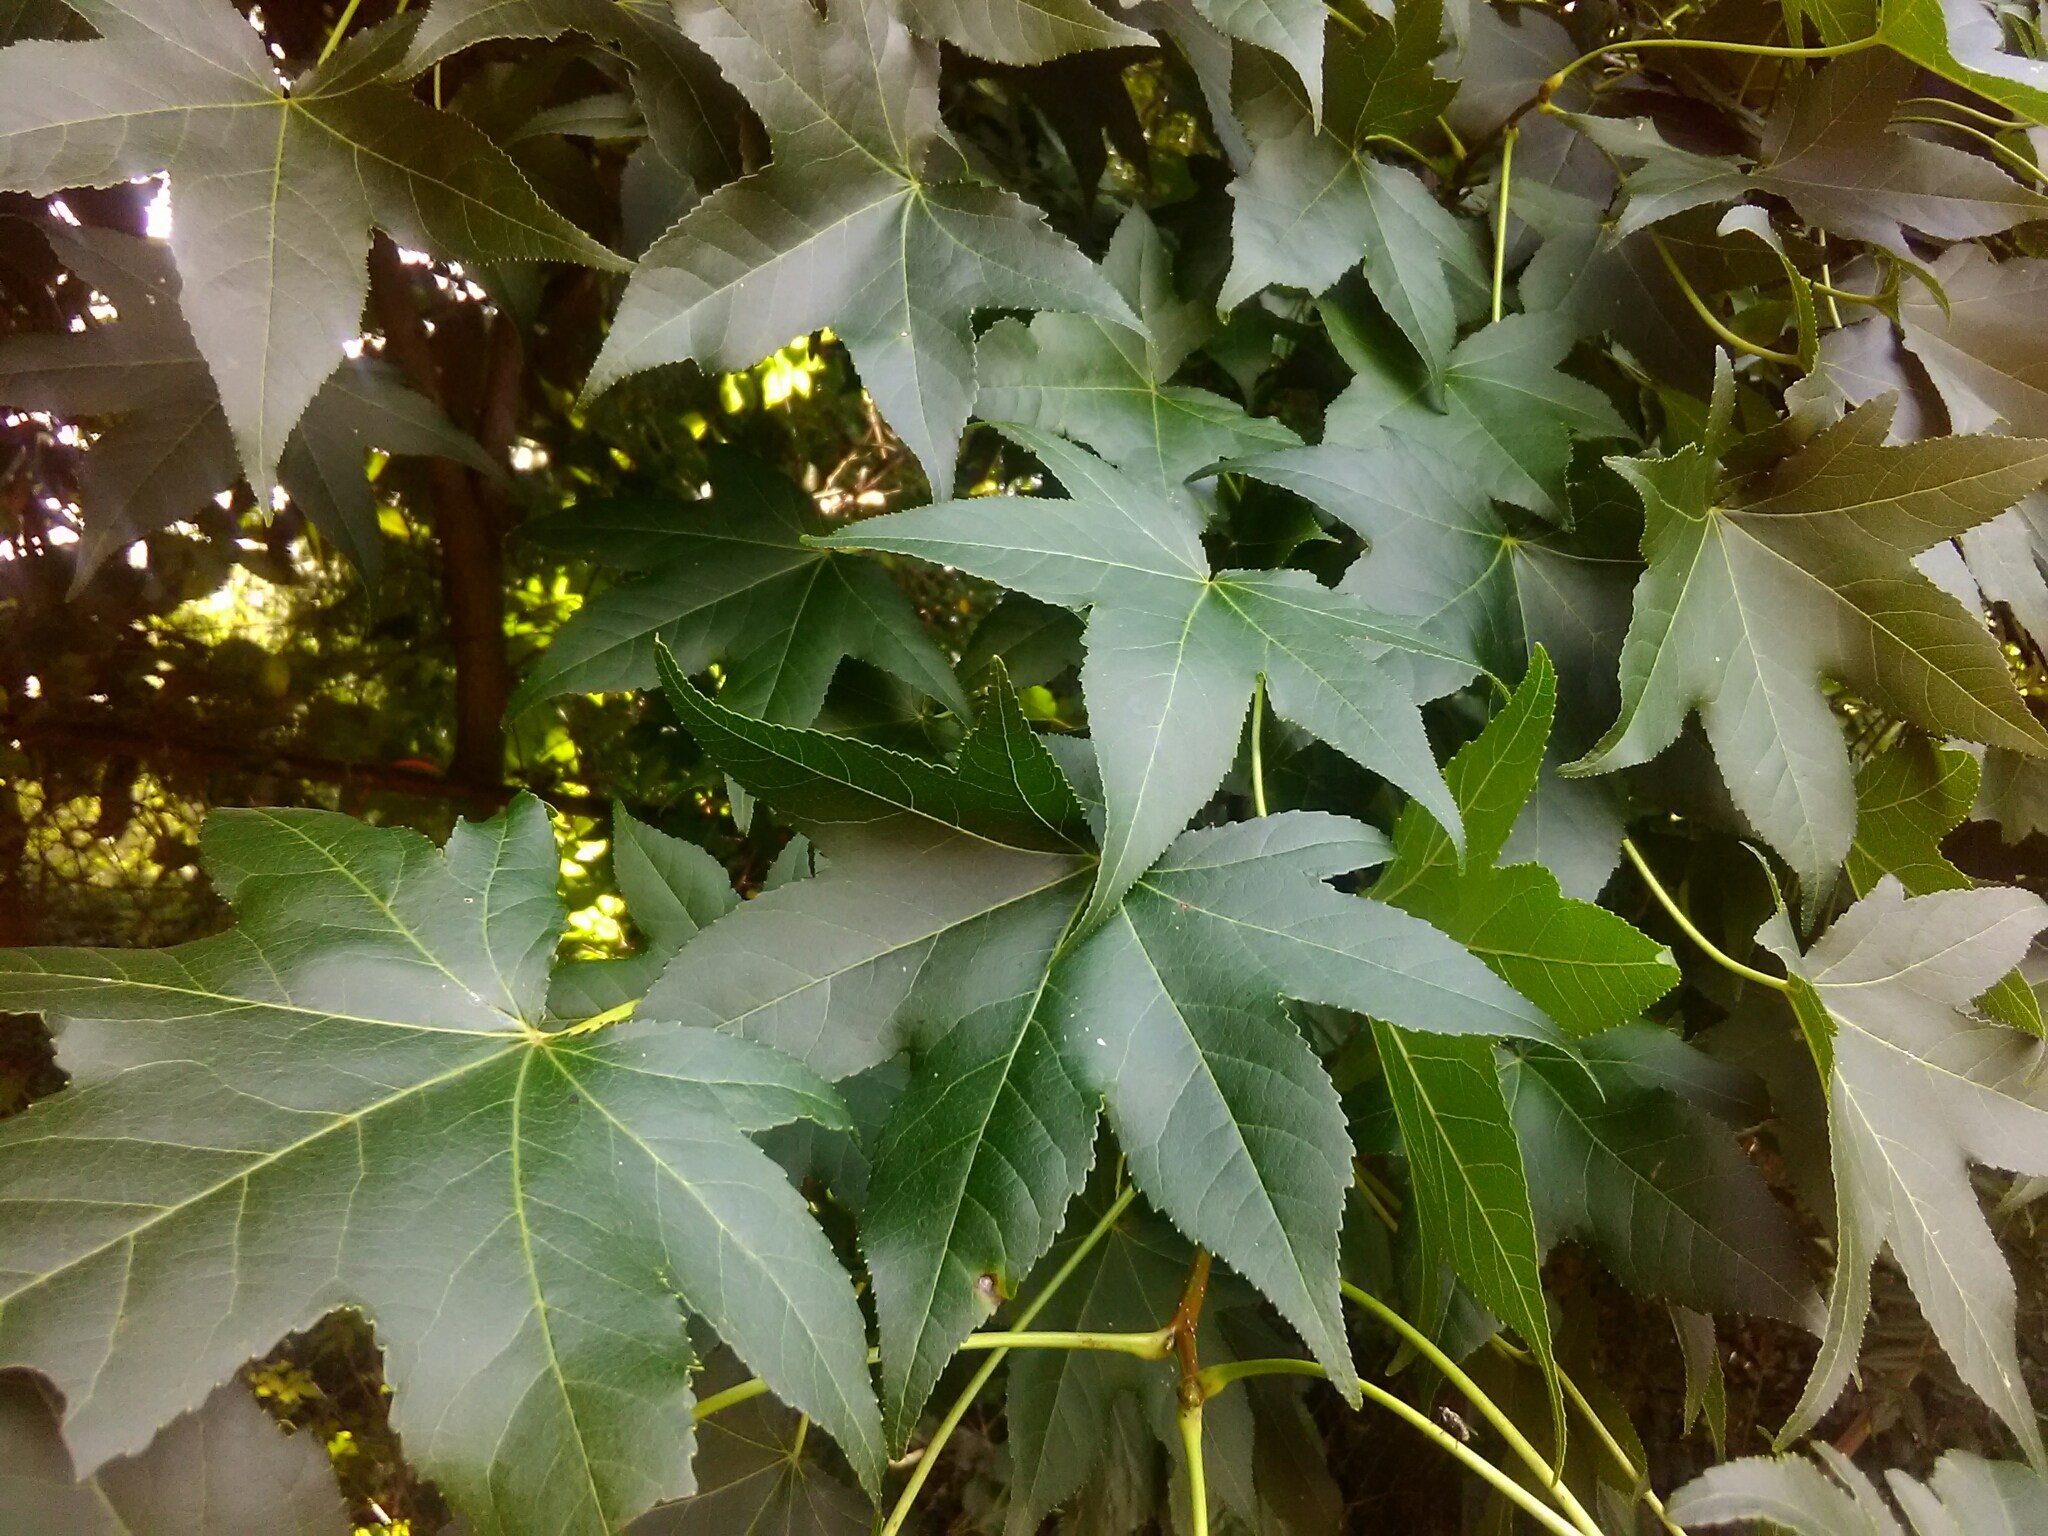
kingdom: Plantae
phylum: Tracheophyta
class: Magnoliopsida
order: Saxifragales
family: Altingiaceae
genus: Liquidambar
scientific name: Liquidambar styraciflua
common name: Sweet gum
